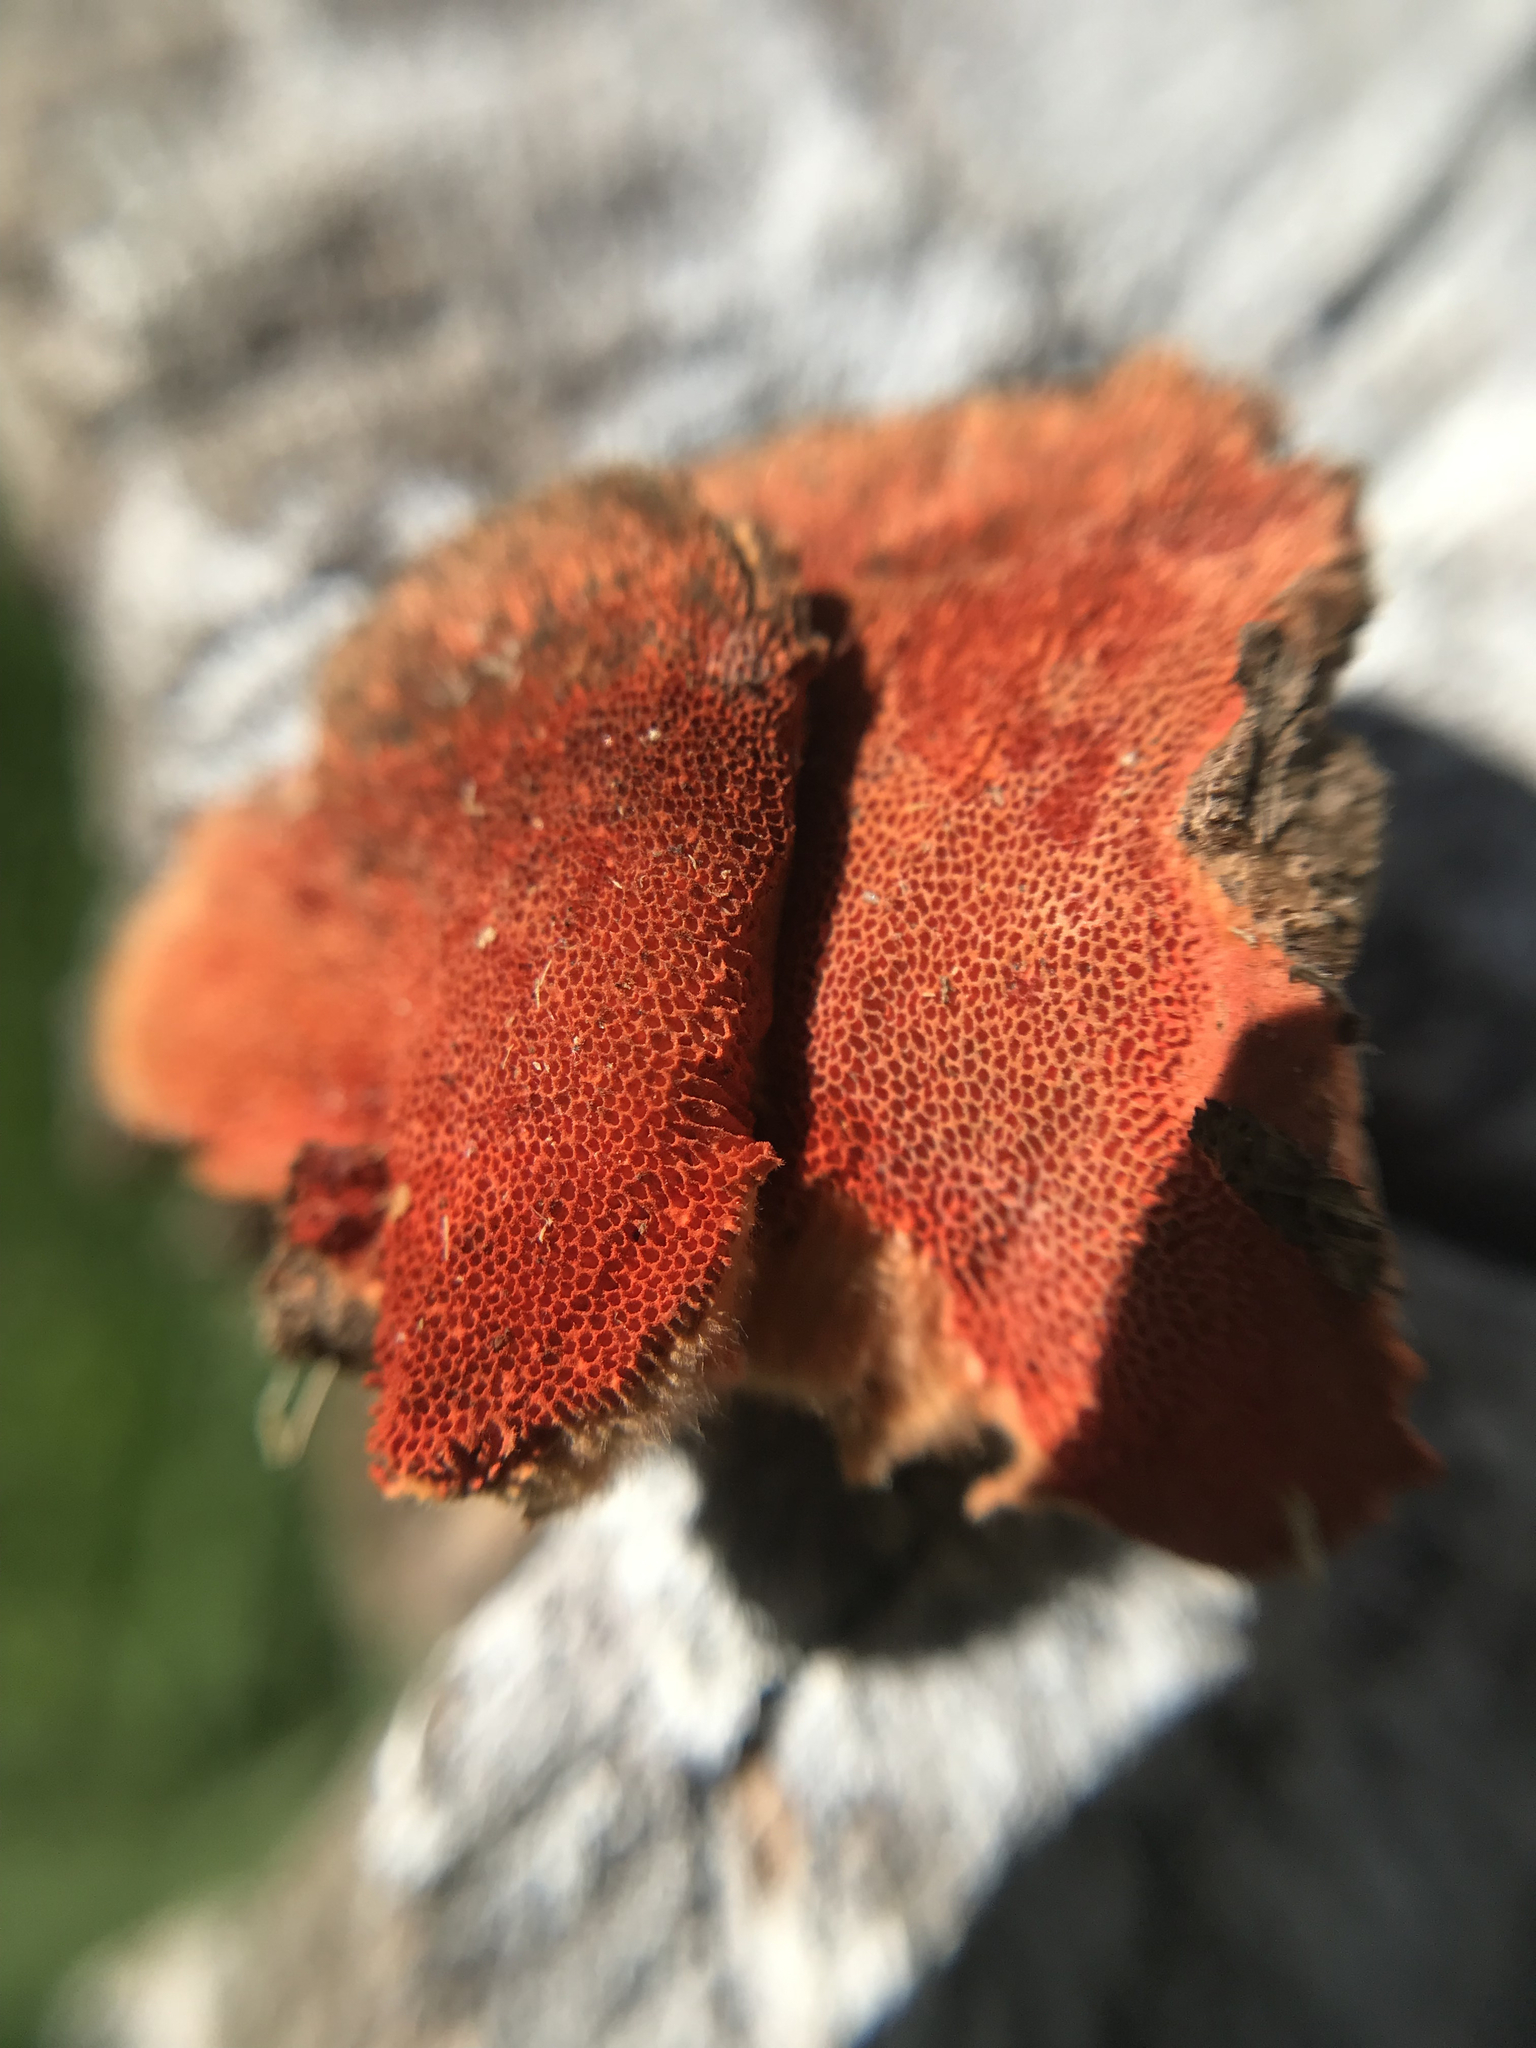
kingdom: Fungi
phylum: Basidiomycota
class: Agaricomycetes
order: Polyporales
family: Polyporaceae
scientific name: Polyporaceae
